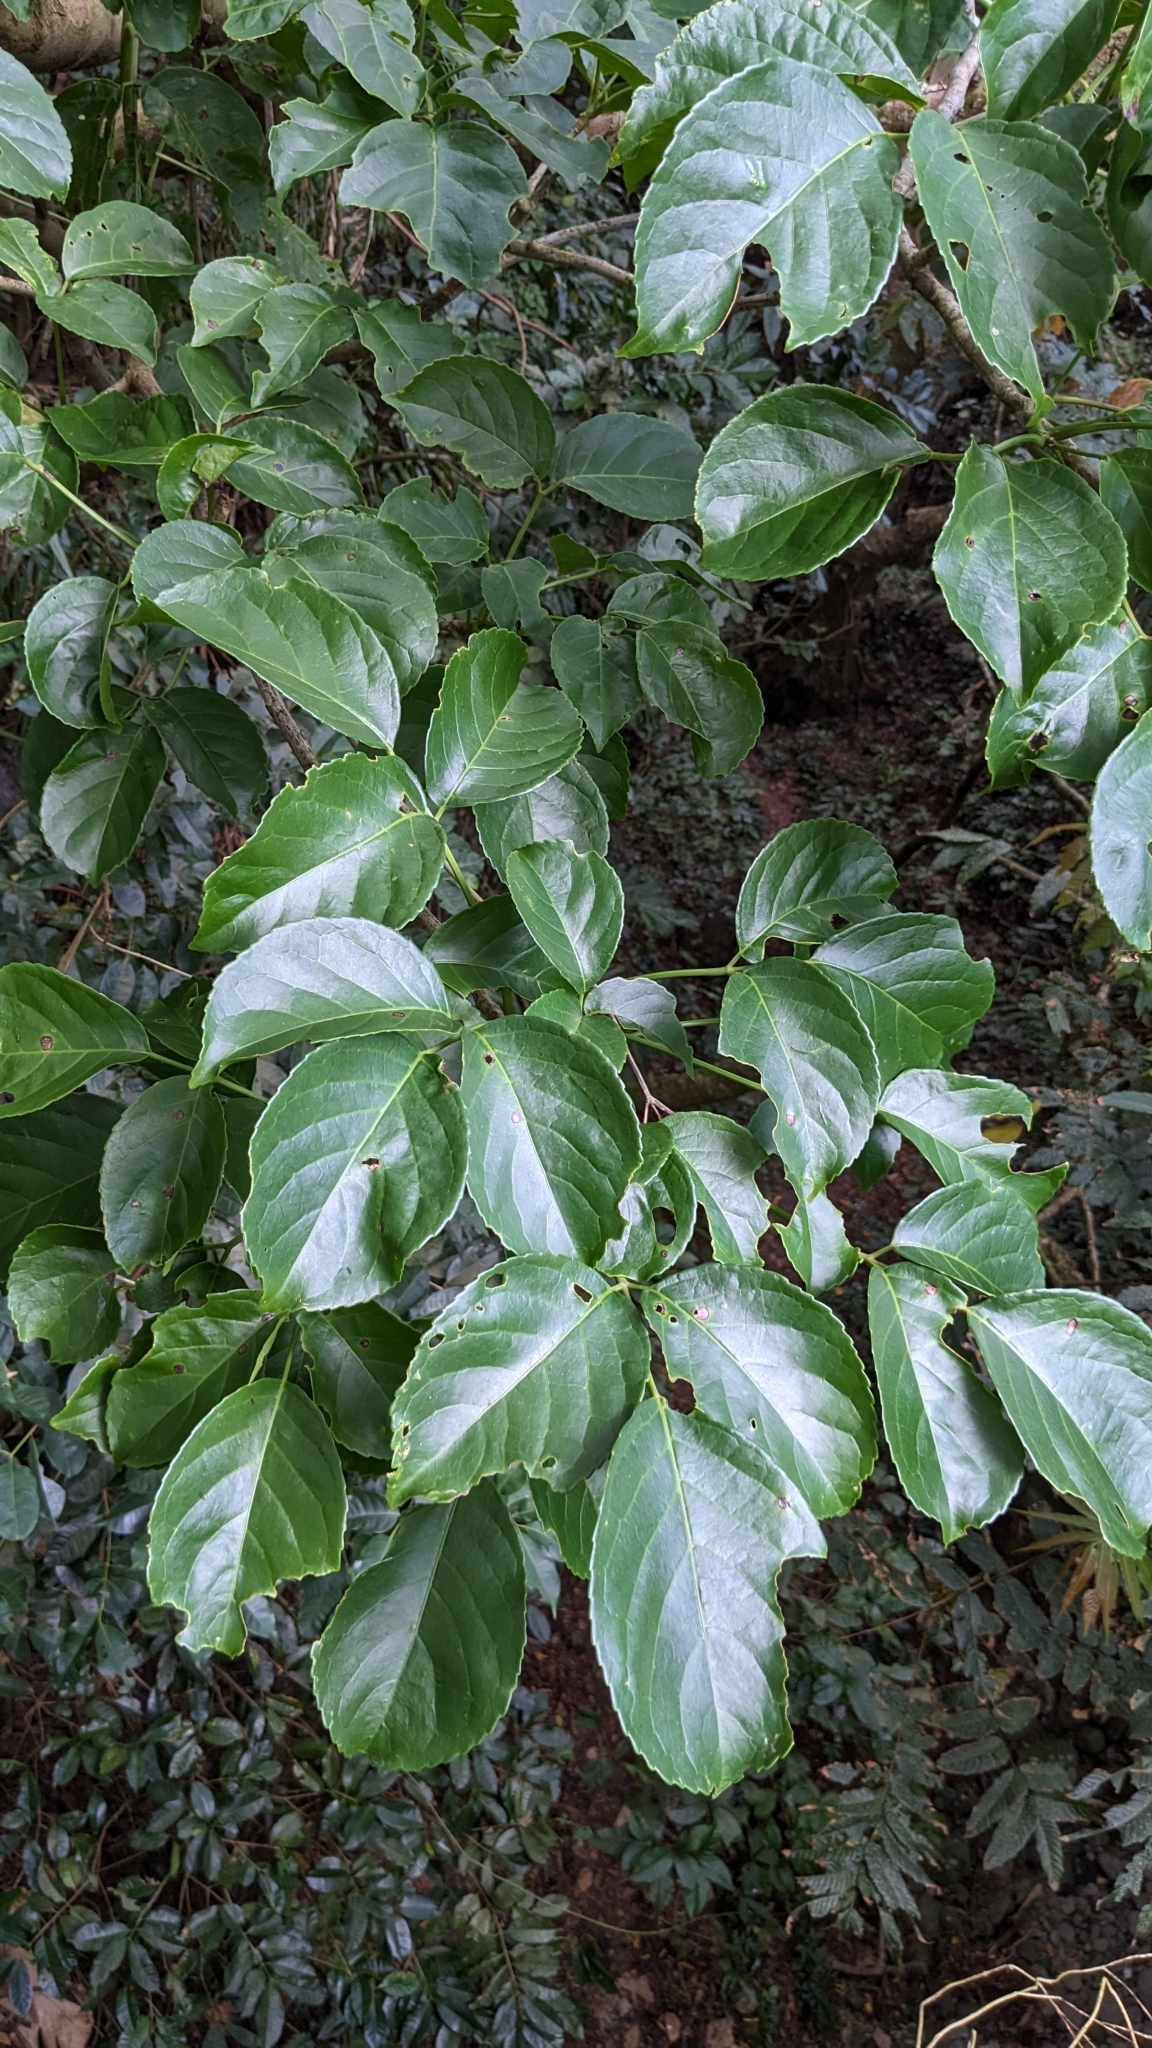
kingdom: Plantae
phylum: Tracheophyta
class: Magnoliopsida
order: Malpighiales
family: Phyllanthaceae
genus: Bischofia
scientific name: Bischofia javanica
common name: Javanese bishopwood
